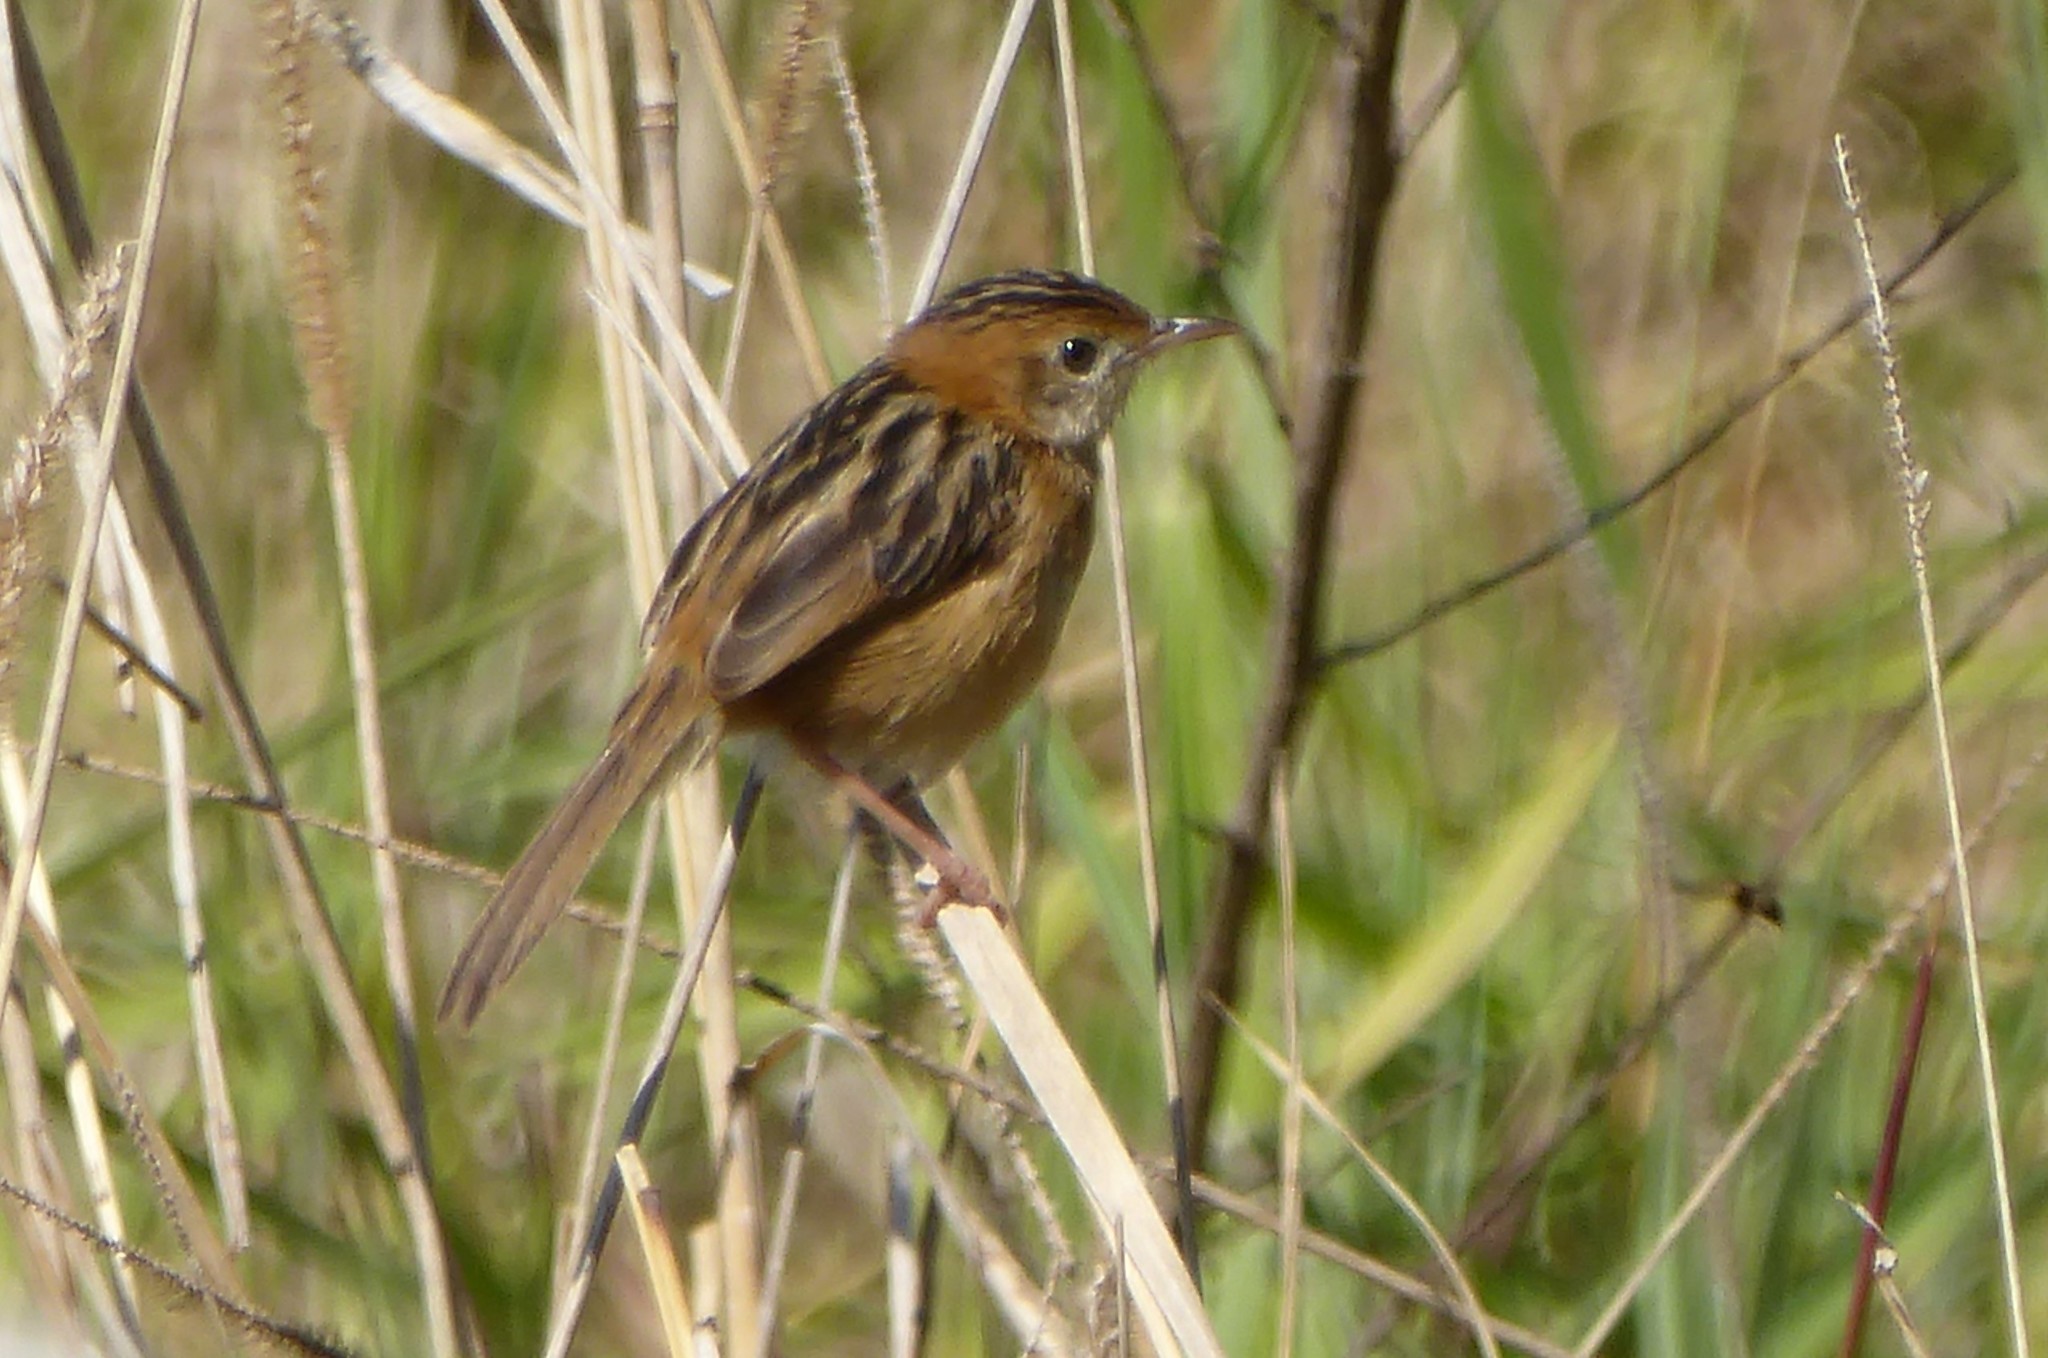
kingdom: Animalia
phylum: Chordata
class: Aves
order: Passeriformes
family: Cisticolidae
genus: Cisticola
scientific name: Cisticola exilis
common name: Golden-headed cisticola
